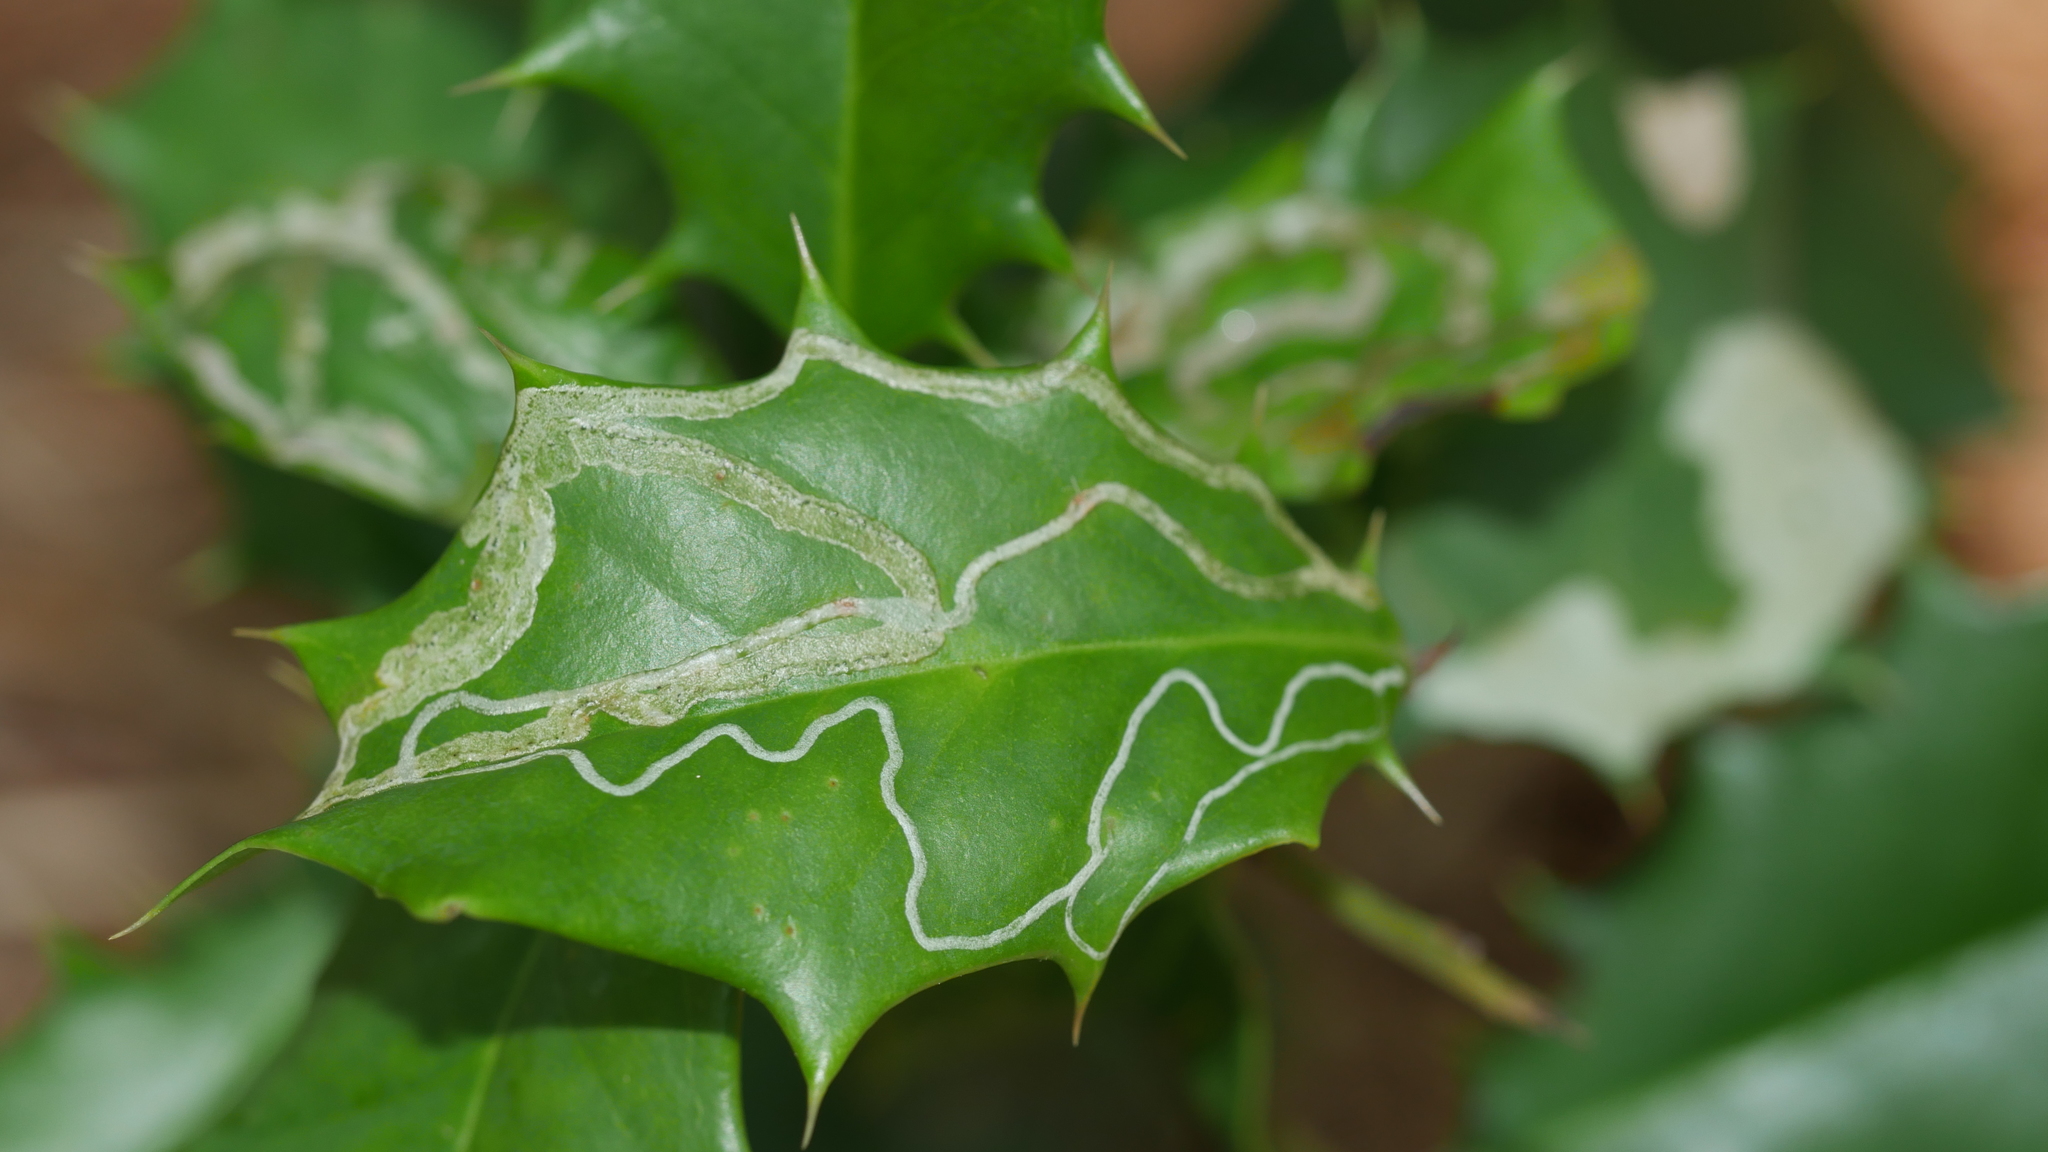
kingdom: Animalia
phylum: Arthropoda
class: Insecta
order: Diptera
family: Agromyzidae
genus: Phytomyza
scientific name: Phytomyza opacae
